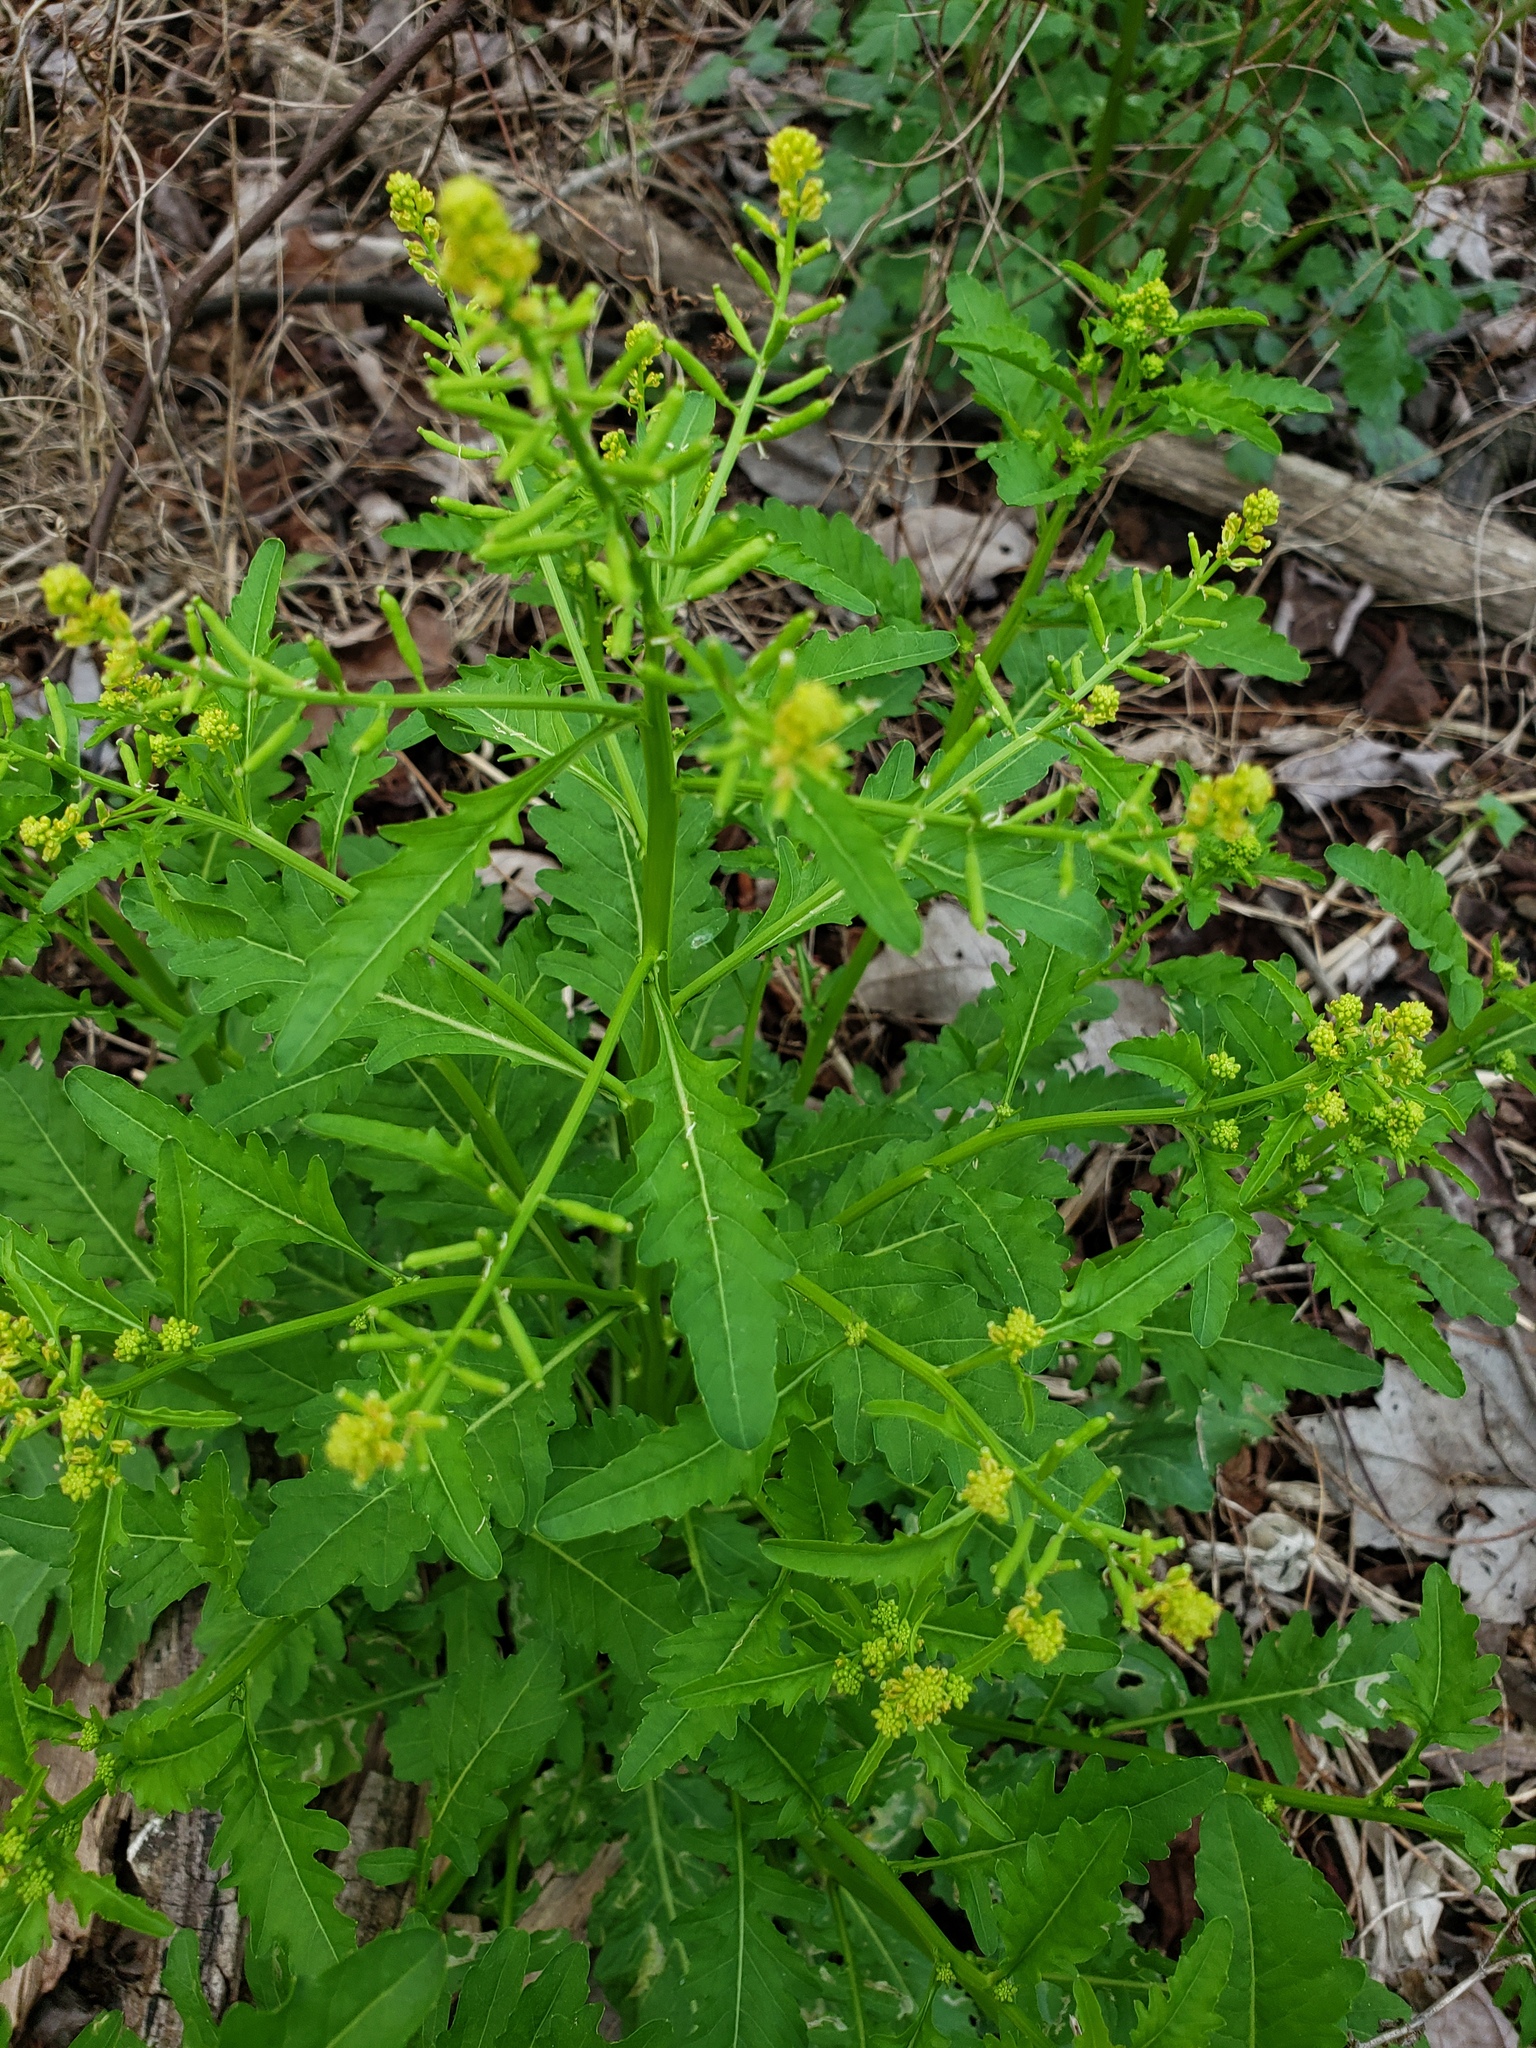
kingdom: Plantae
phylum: Tracheophyta
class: Magnoliopsida
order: Brassicales
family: Brassicaceae
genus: Rorippa
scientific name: Rorippa sessiliflora
